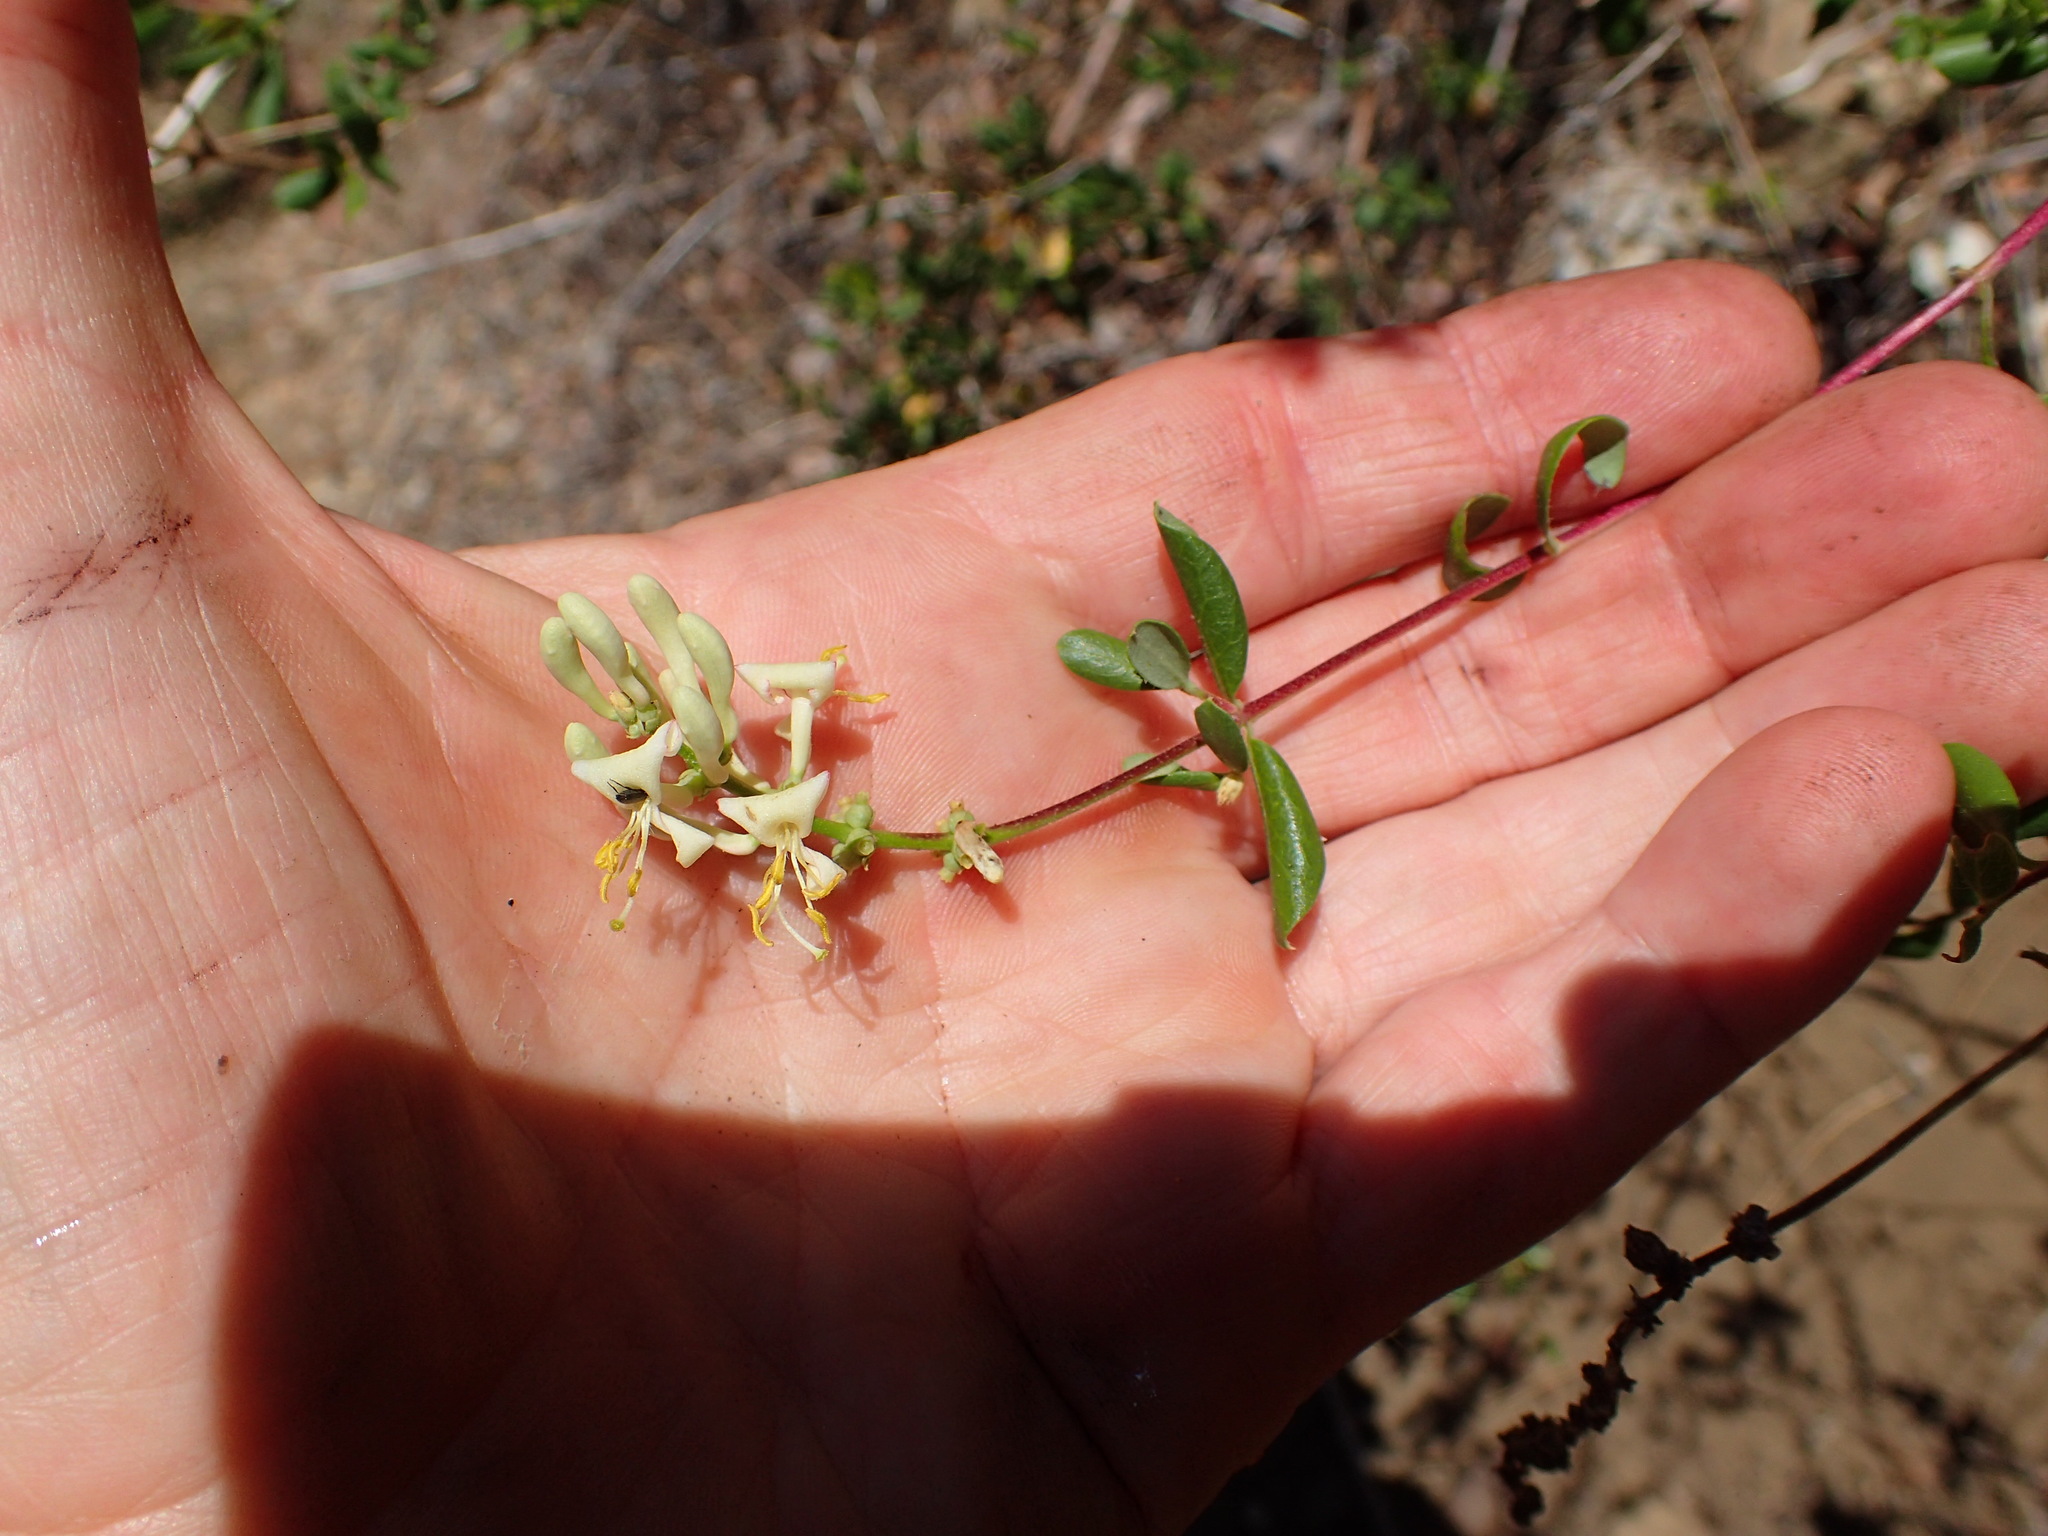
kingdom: Plantae
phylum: Tracheophyta
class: Magnoliopsida
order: Dipsacales
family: Caprifoliaceae
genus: Lonicera
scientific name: Lonicera subspicata
